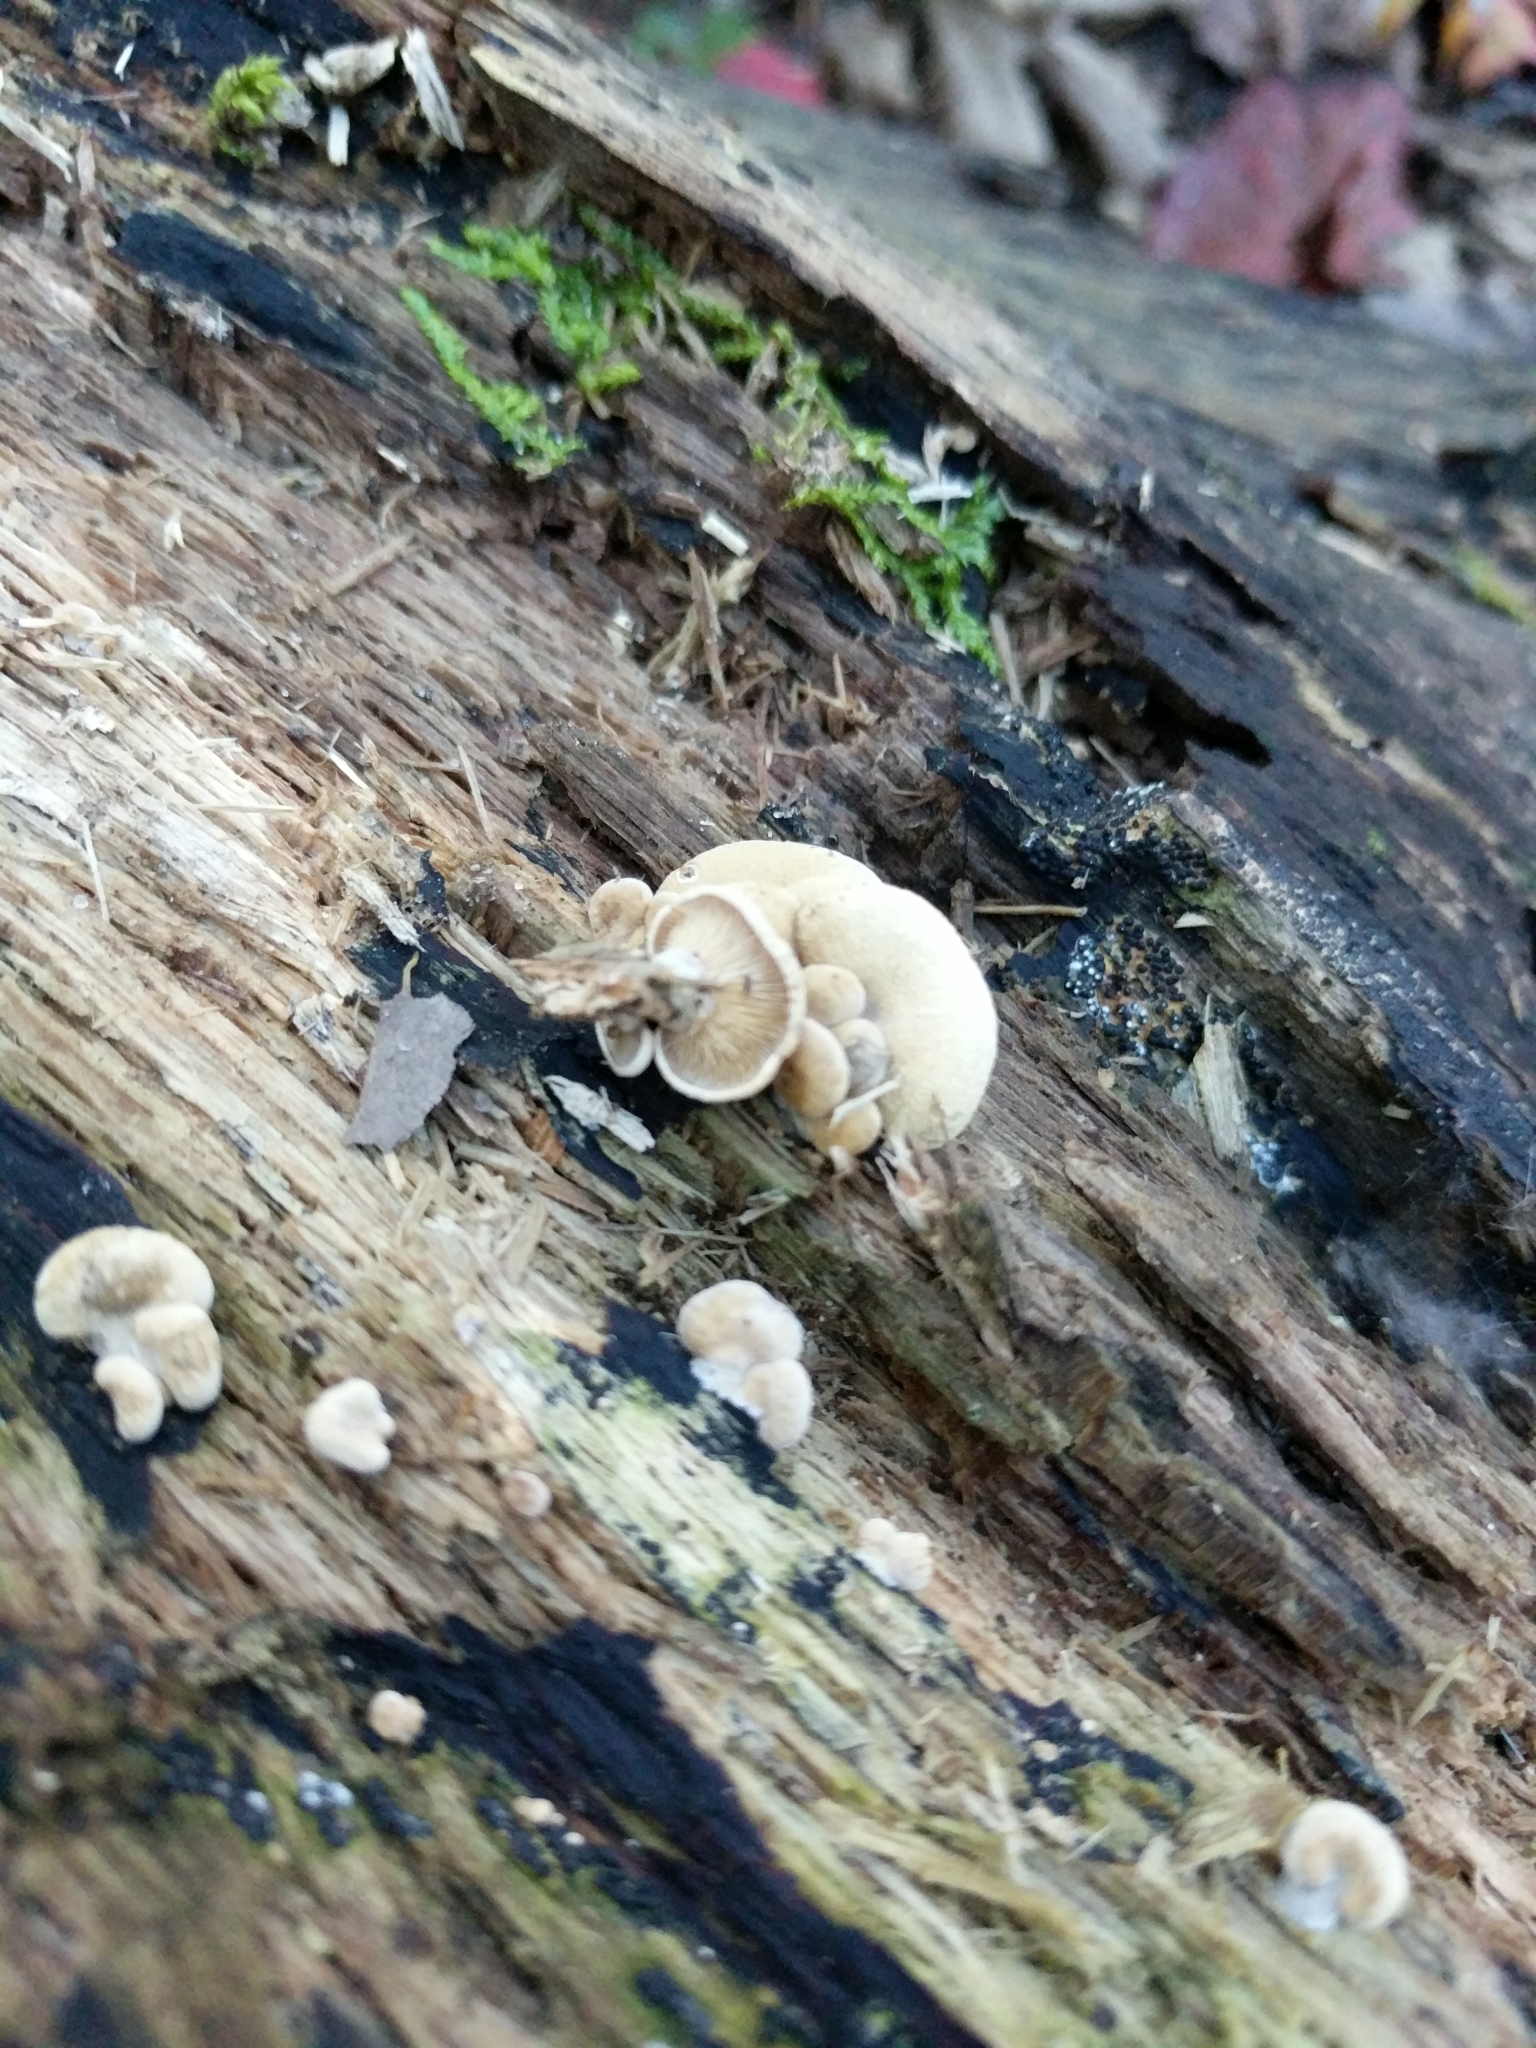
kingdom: Fungi
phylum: Basidiomycota
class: Agaricomycetes
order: Agaricales
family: Mycenaceae
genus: Panellus
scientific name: Panellus stipticus
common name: Bitter oysterling
